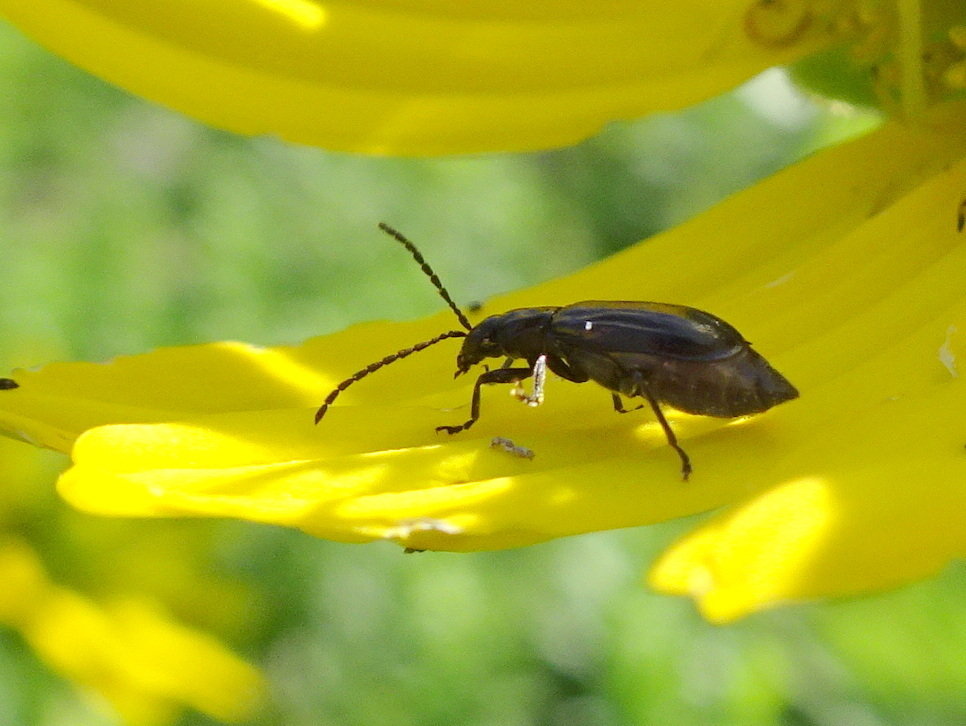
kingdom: Animalia
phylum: Arthropoda
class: Insecta
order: Coleoptera
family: Chrysomelidae
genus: Diabrotica
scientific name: Diabrotica cristata
